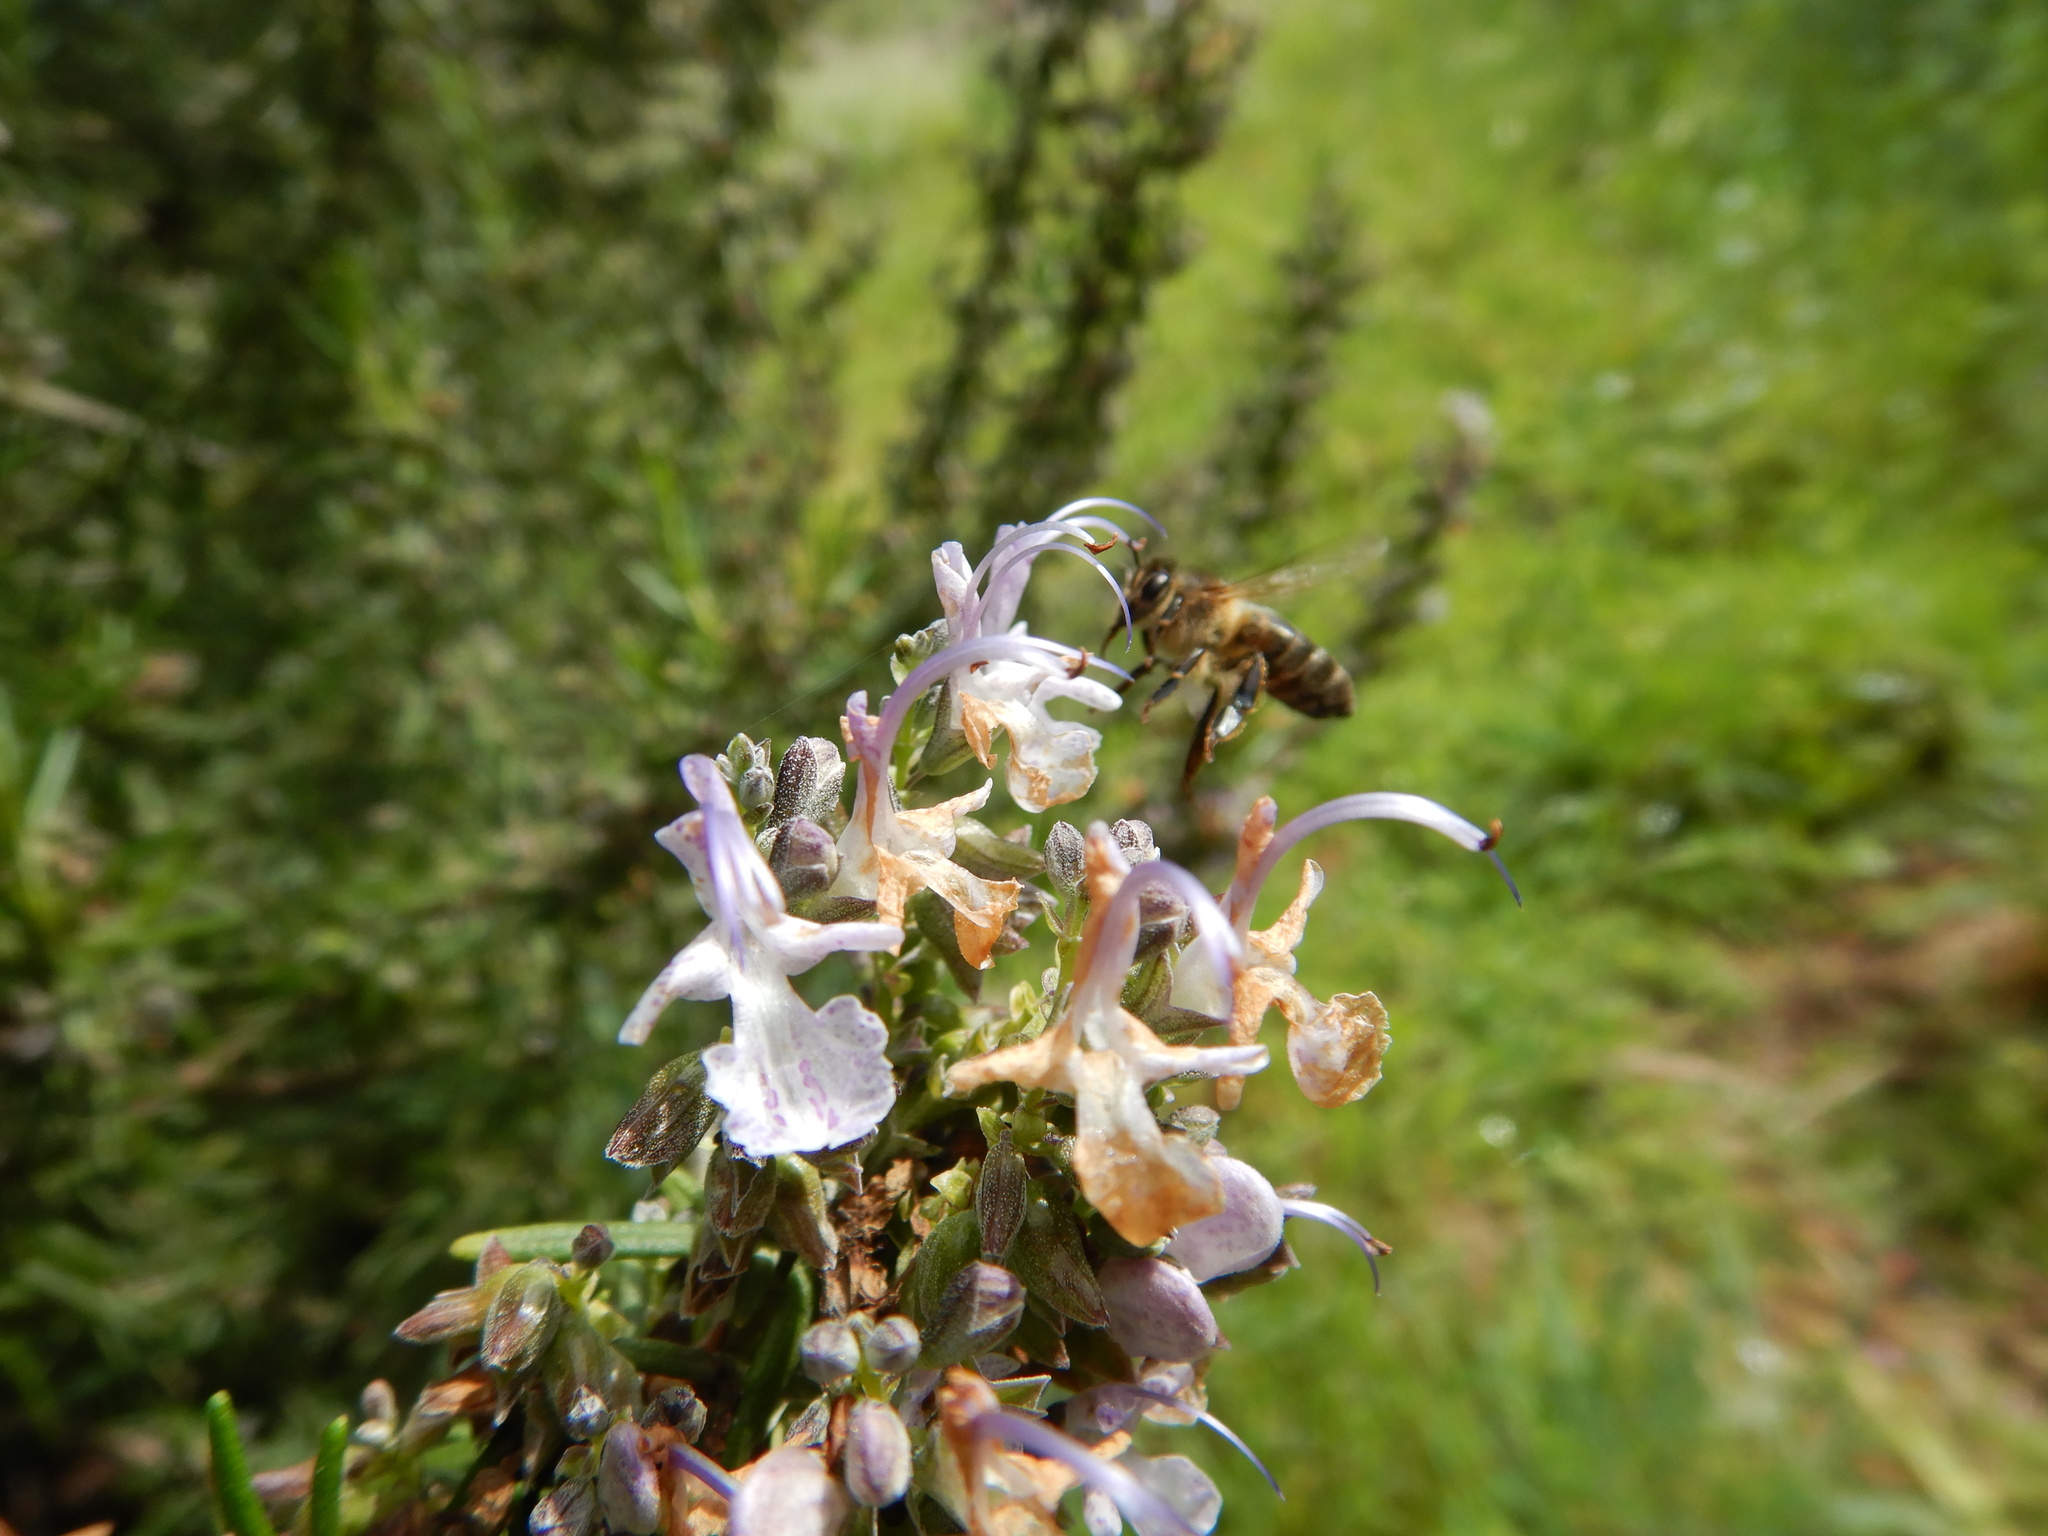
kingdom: Animalia
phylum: Arthropoda
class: Insecta
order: Hymenoptera
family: Apidae
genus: Apis
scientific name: Apis mellifera
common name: Honey bee
